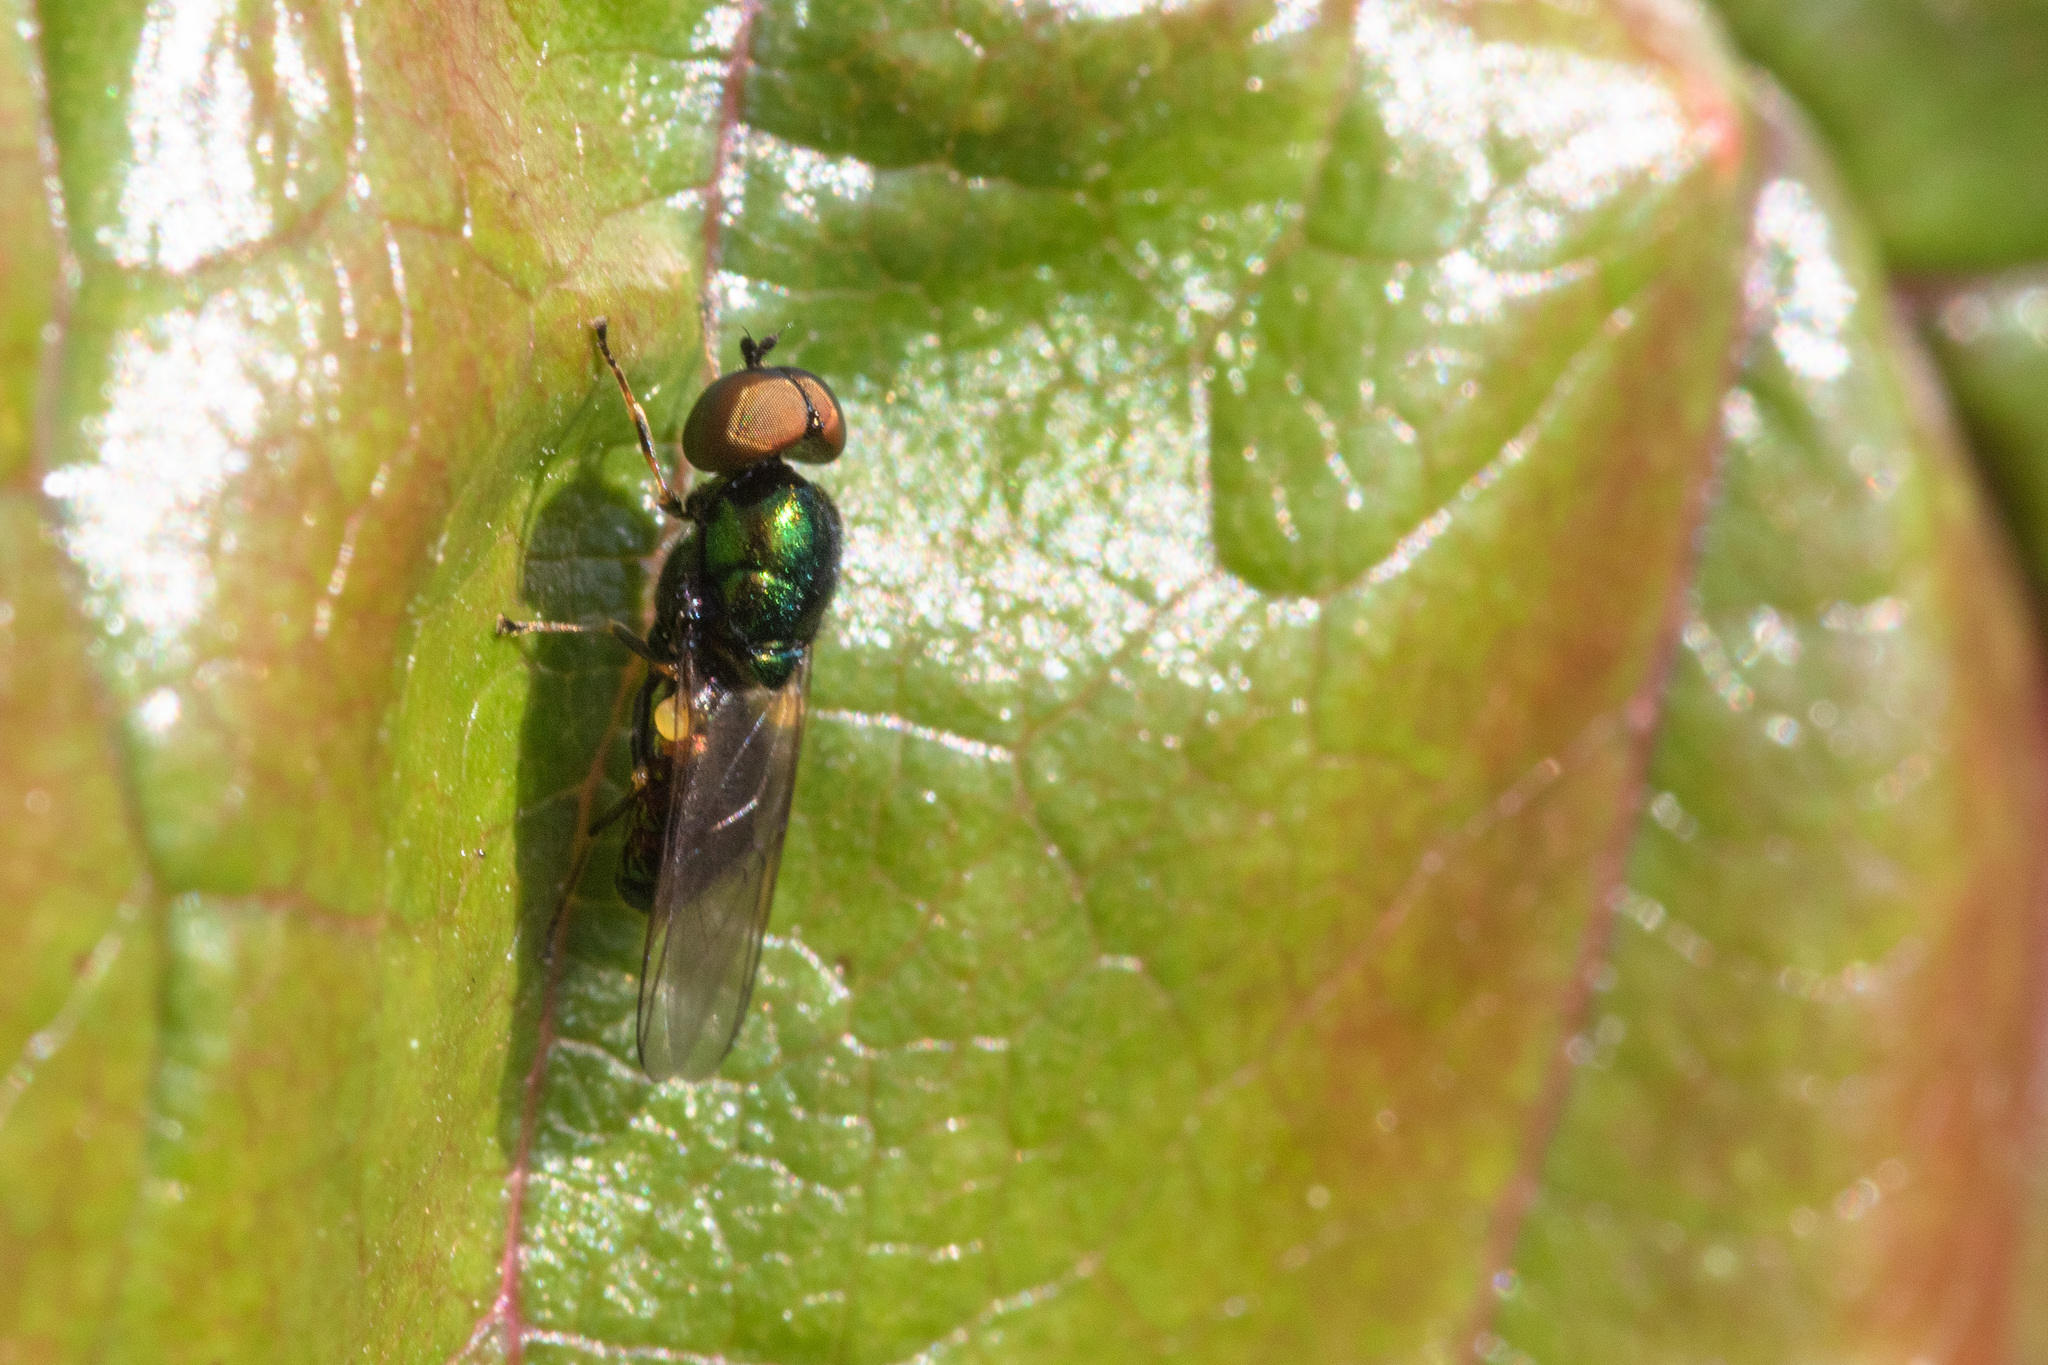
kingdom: Animalia
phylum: Arthropoda
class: Insecta
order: Diptera
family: Stratiomyidae
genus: Microchrysa
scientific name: Microchrysa polita
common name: Black-horned gem
